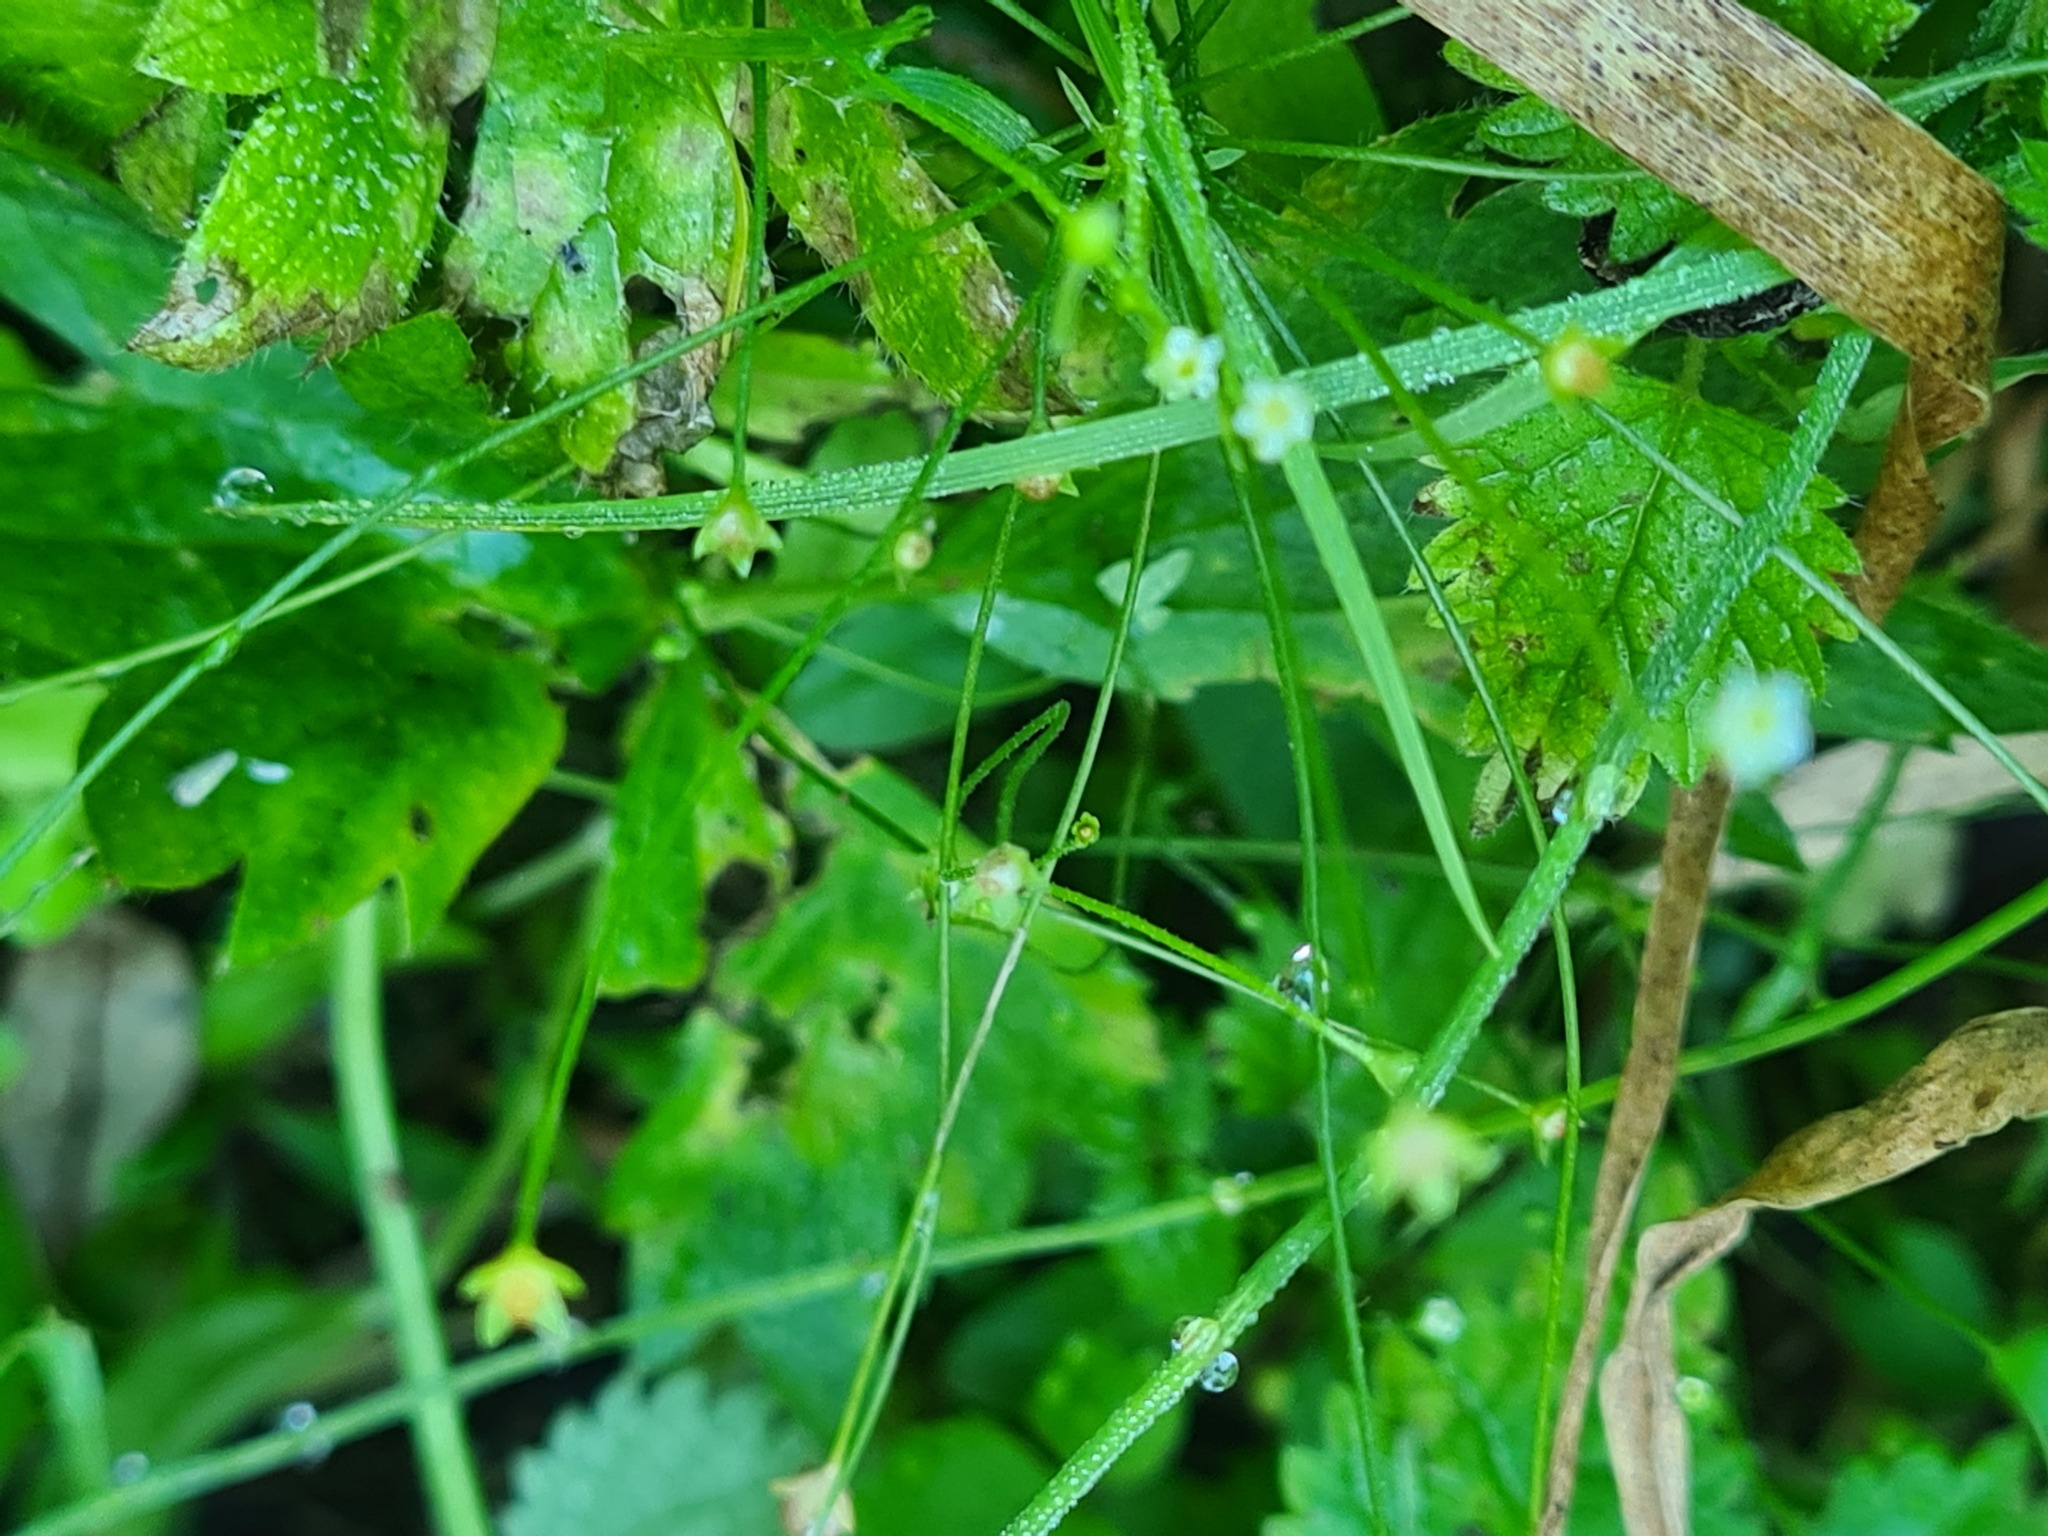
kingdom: Plantae
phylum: Tracheophyta
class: Magnoliopsida
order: Ericales
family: Primulaceae
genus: Androsace
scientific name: Androsace filiformis
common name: Filiform rock jasmine
